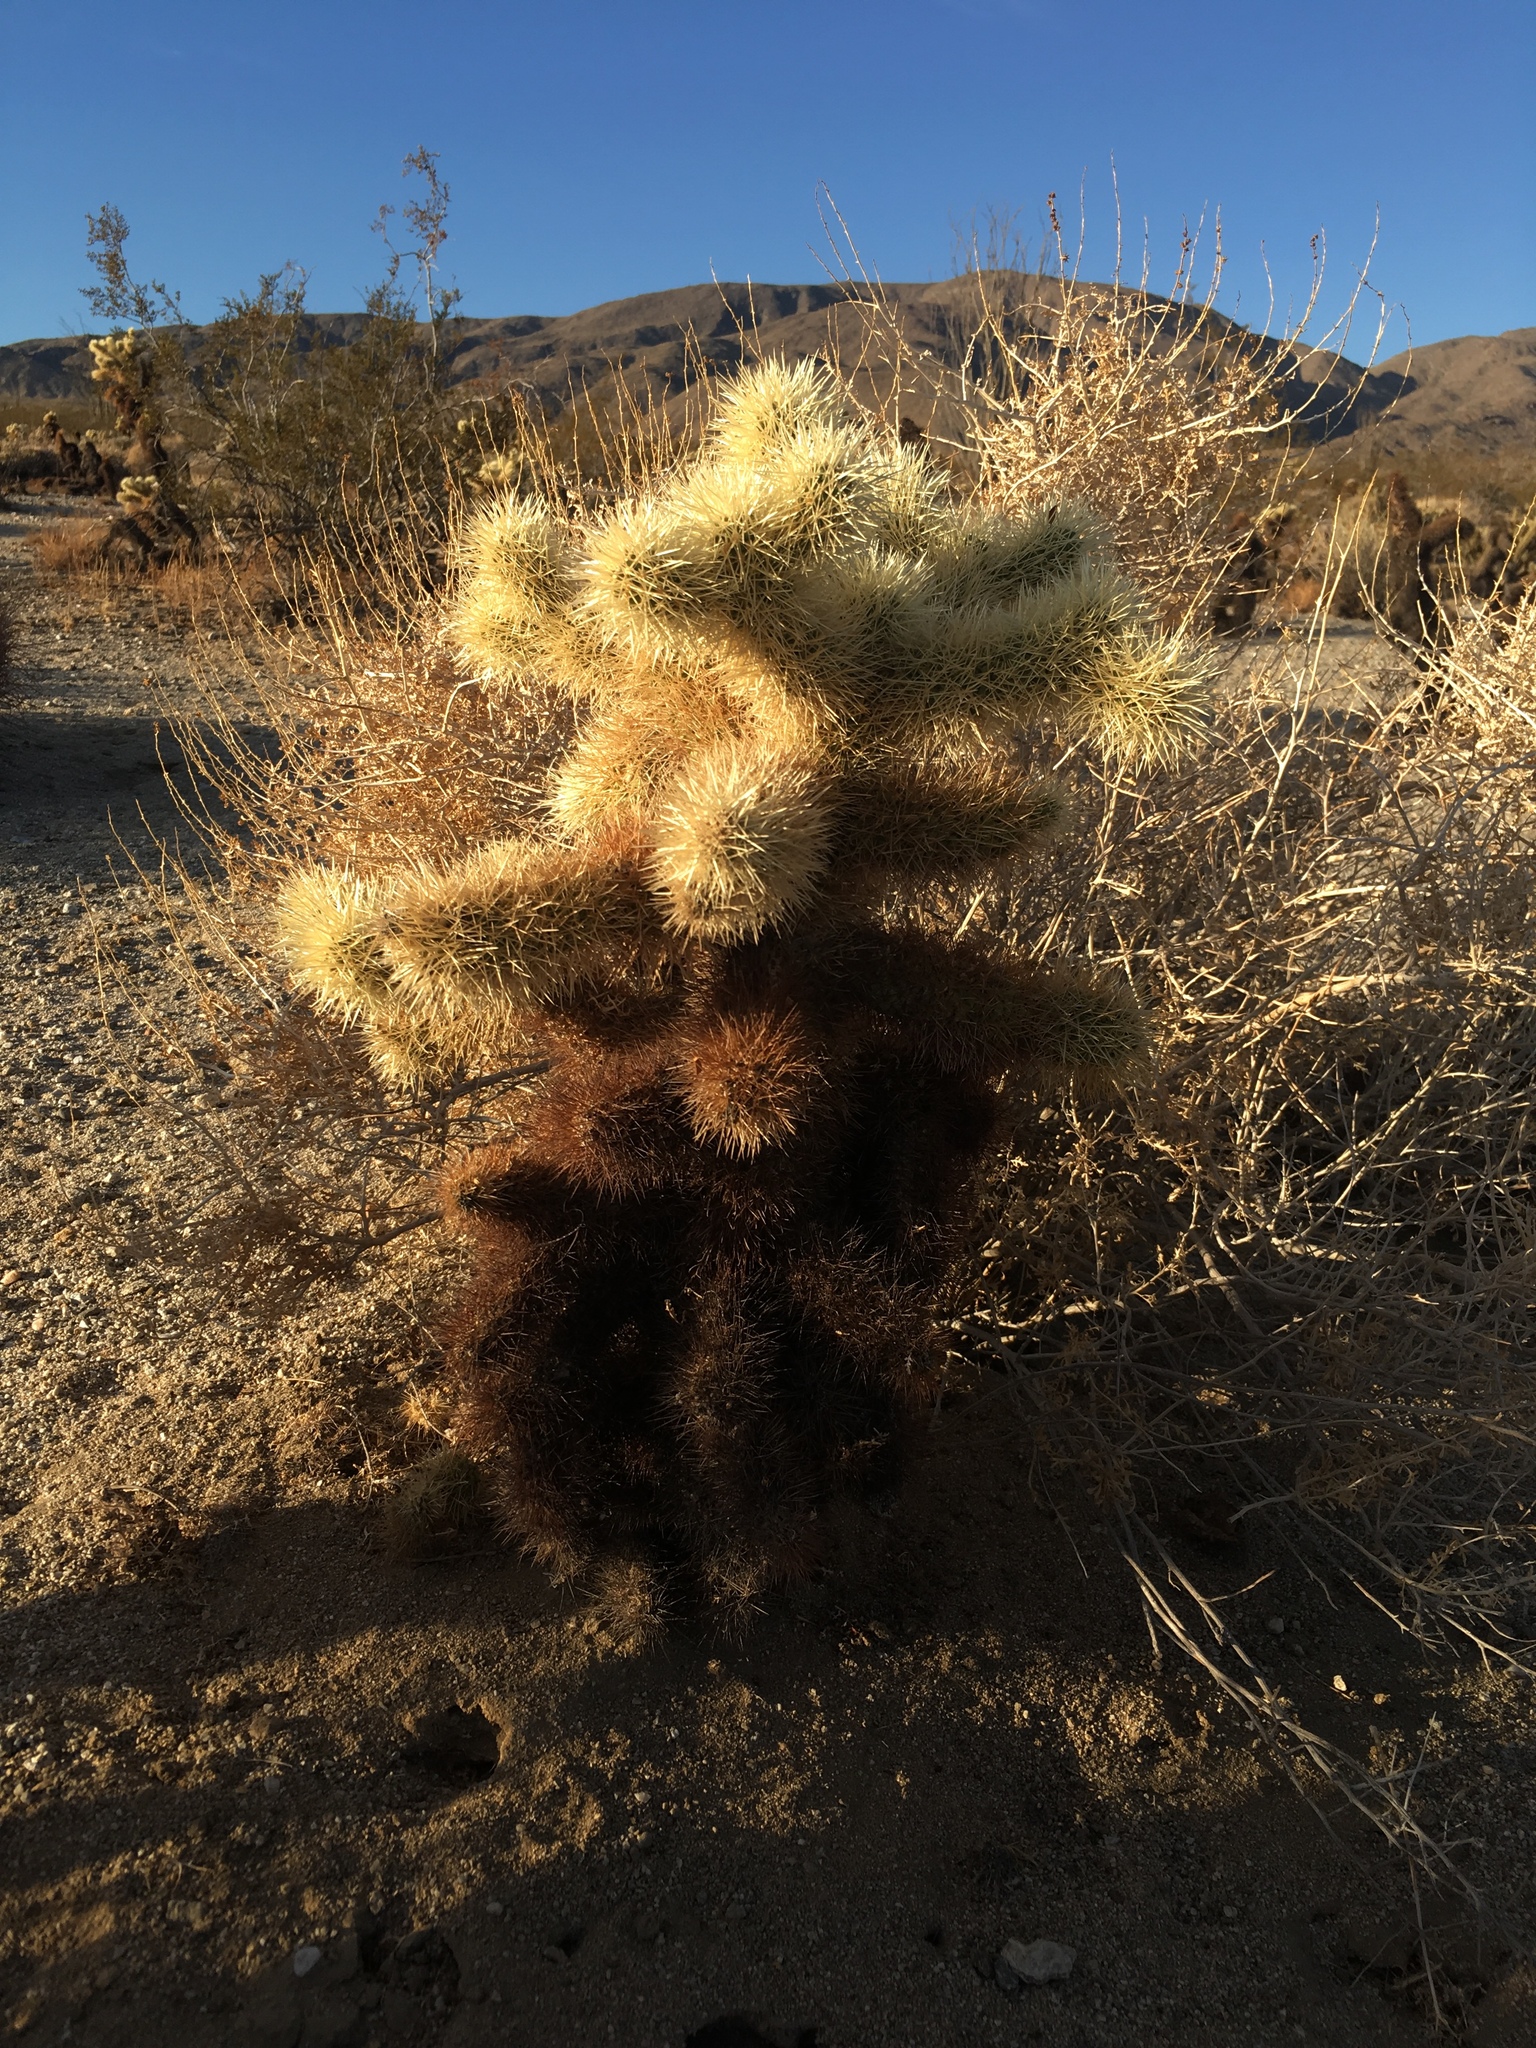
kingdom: Plantae
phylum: Tracheophyta
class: Magnoliopsida
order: Caryophyllales
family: Cactaceae
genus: Cylindropuntia
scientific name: Cylindropuntia fosbergii
